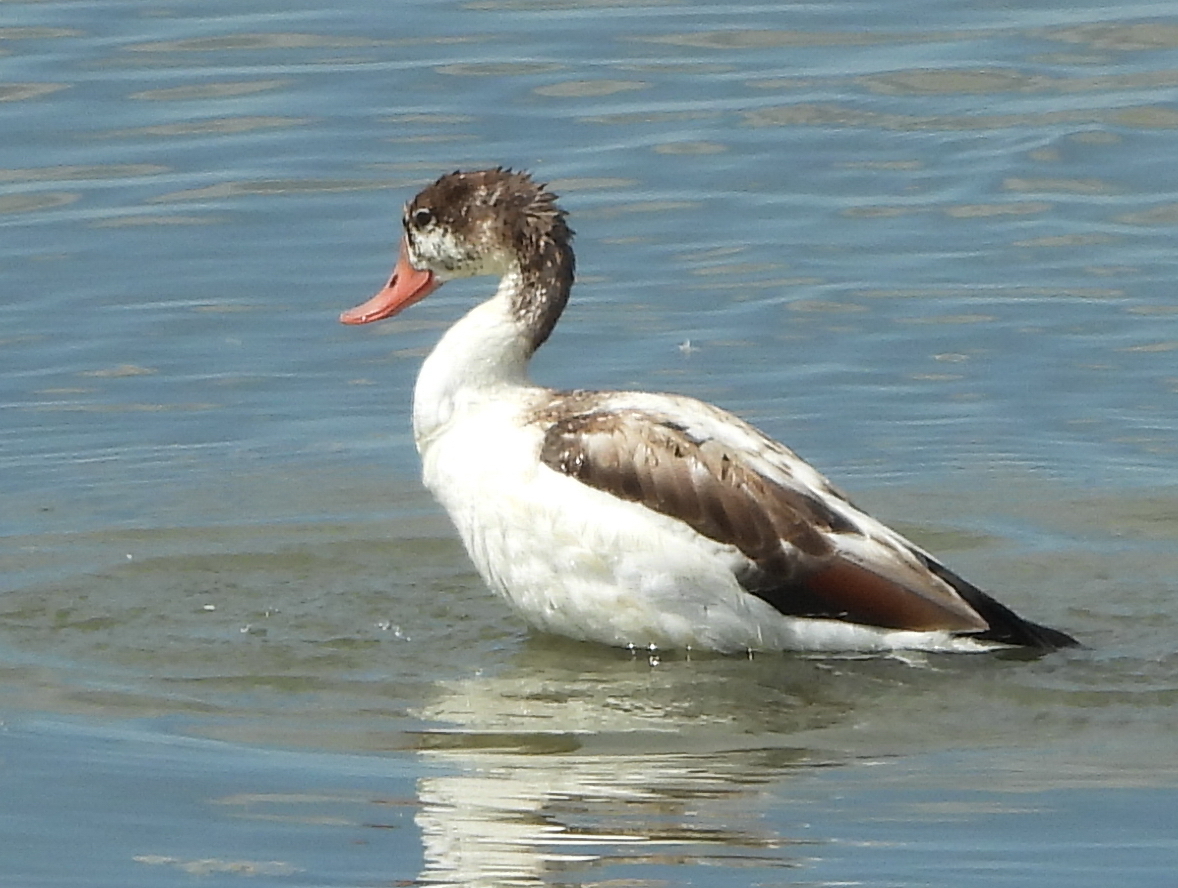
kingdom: Animalia
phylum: Chordata
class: Aves
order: Anseriformes
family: Anatidae
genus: Tadorna
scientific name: Tadorna tadorna
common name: Common shelduck
